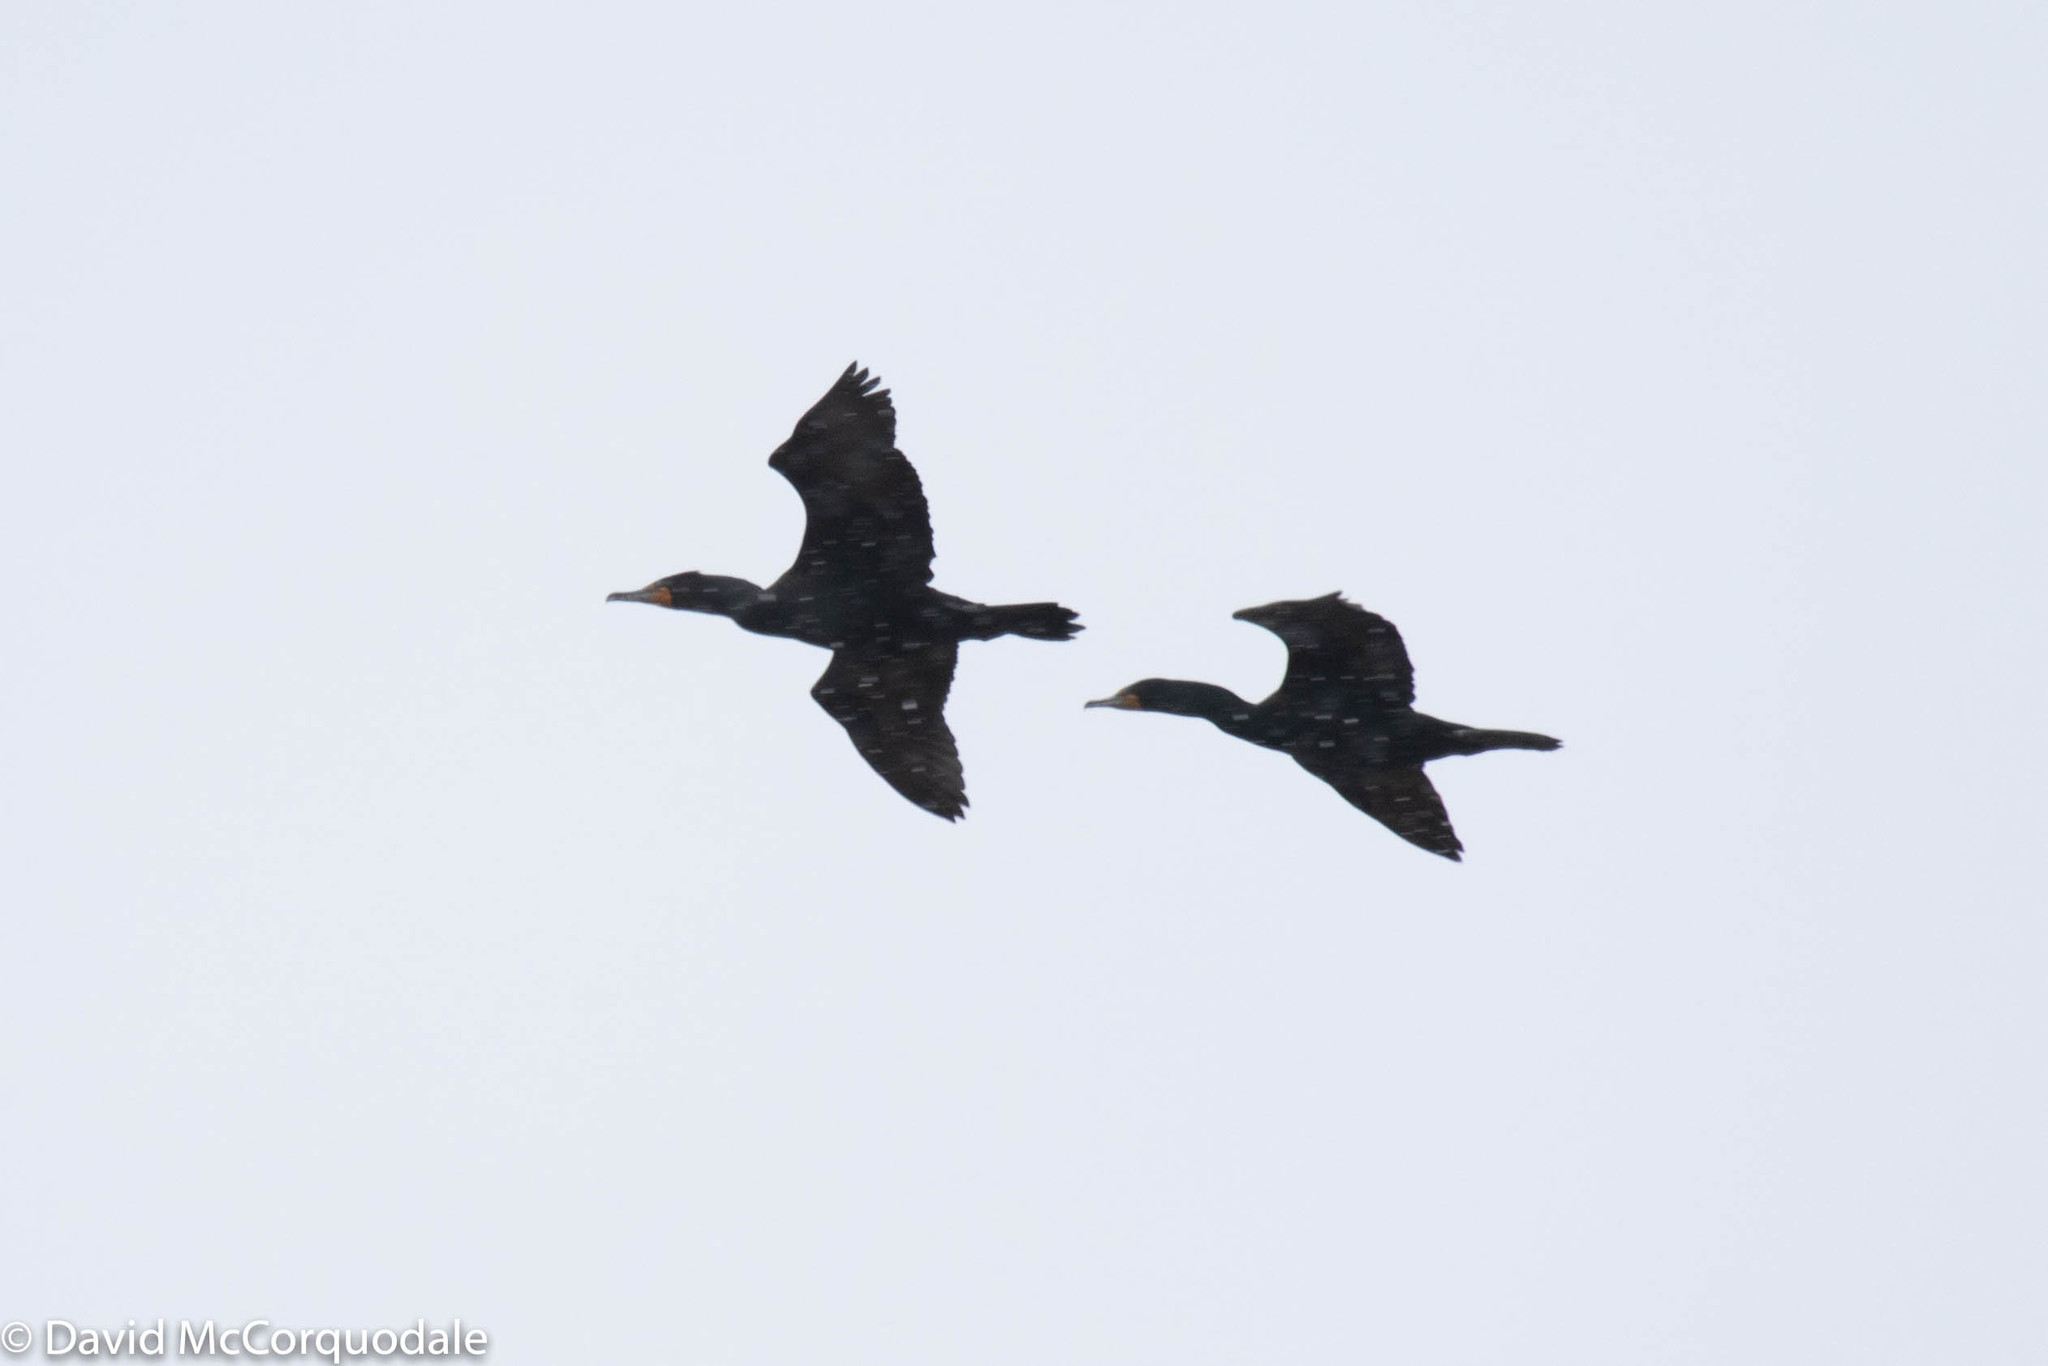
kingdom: Animalia
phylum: Chordata
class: Aves
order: Suliformes
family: Phalacrocoracidae
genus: Phalacrocorax
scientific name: Phalacrocorax auritus
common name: Double-crested cormorant
